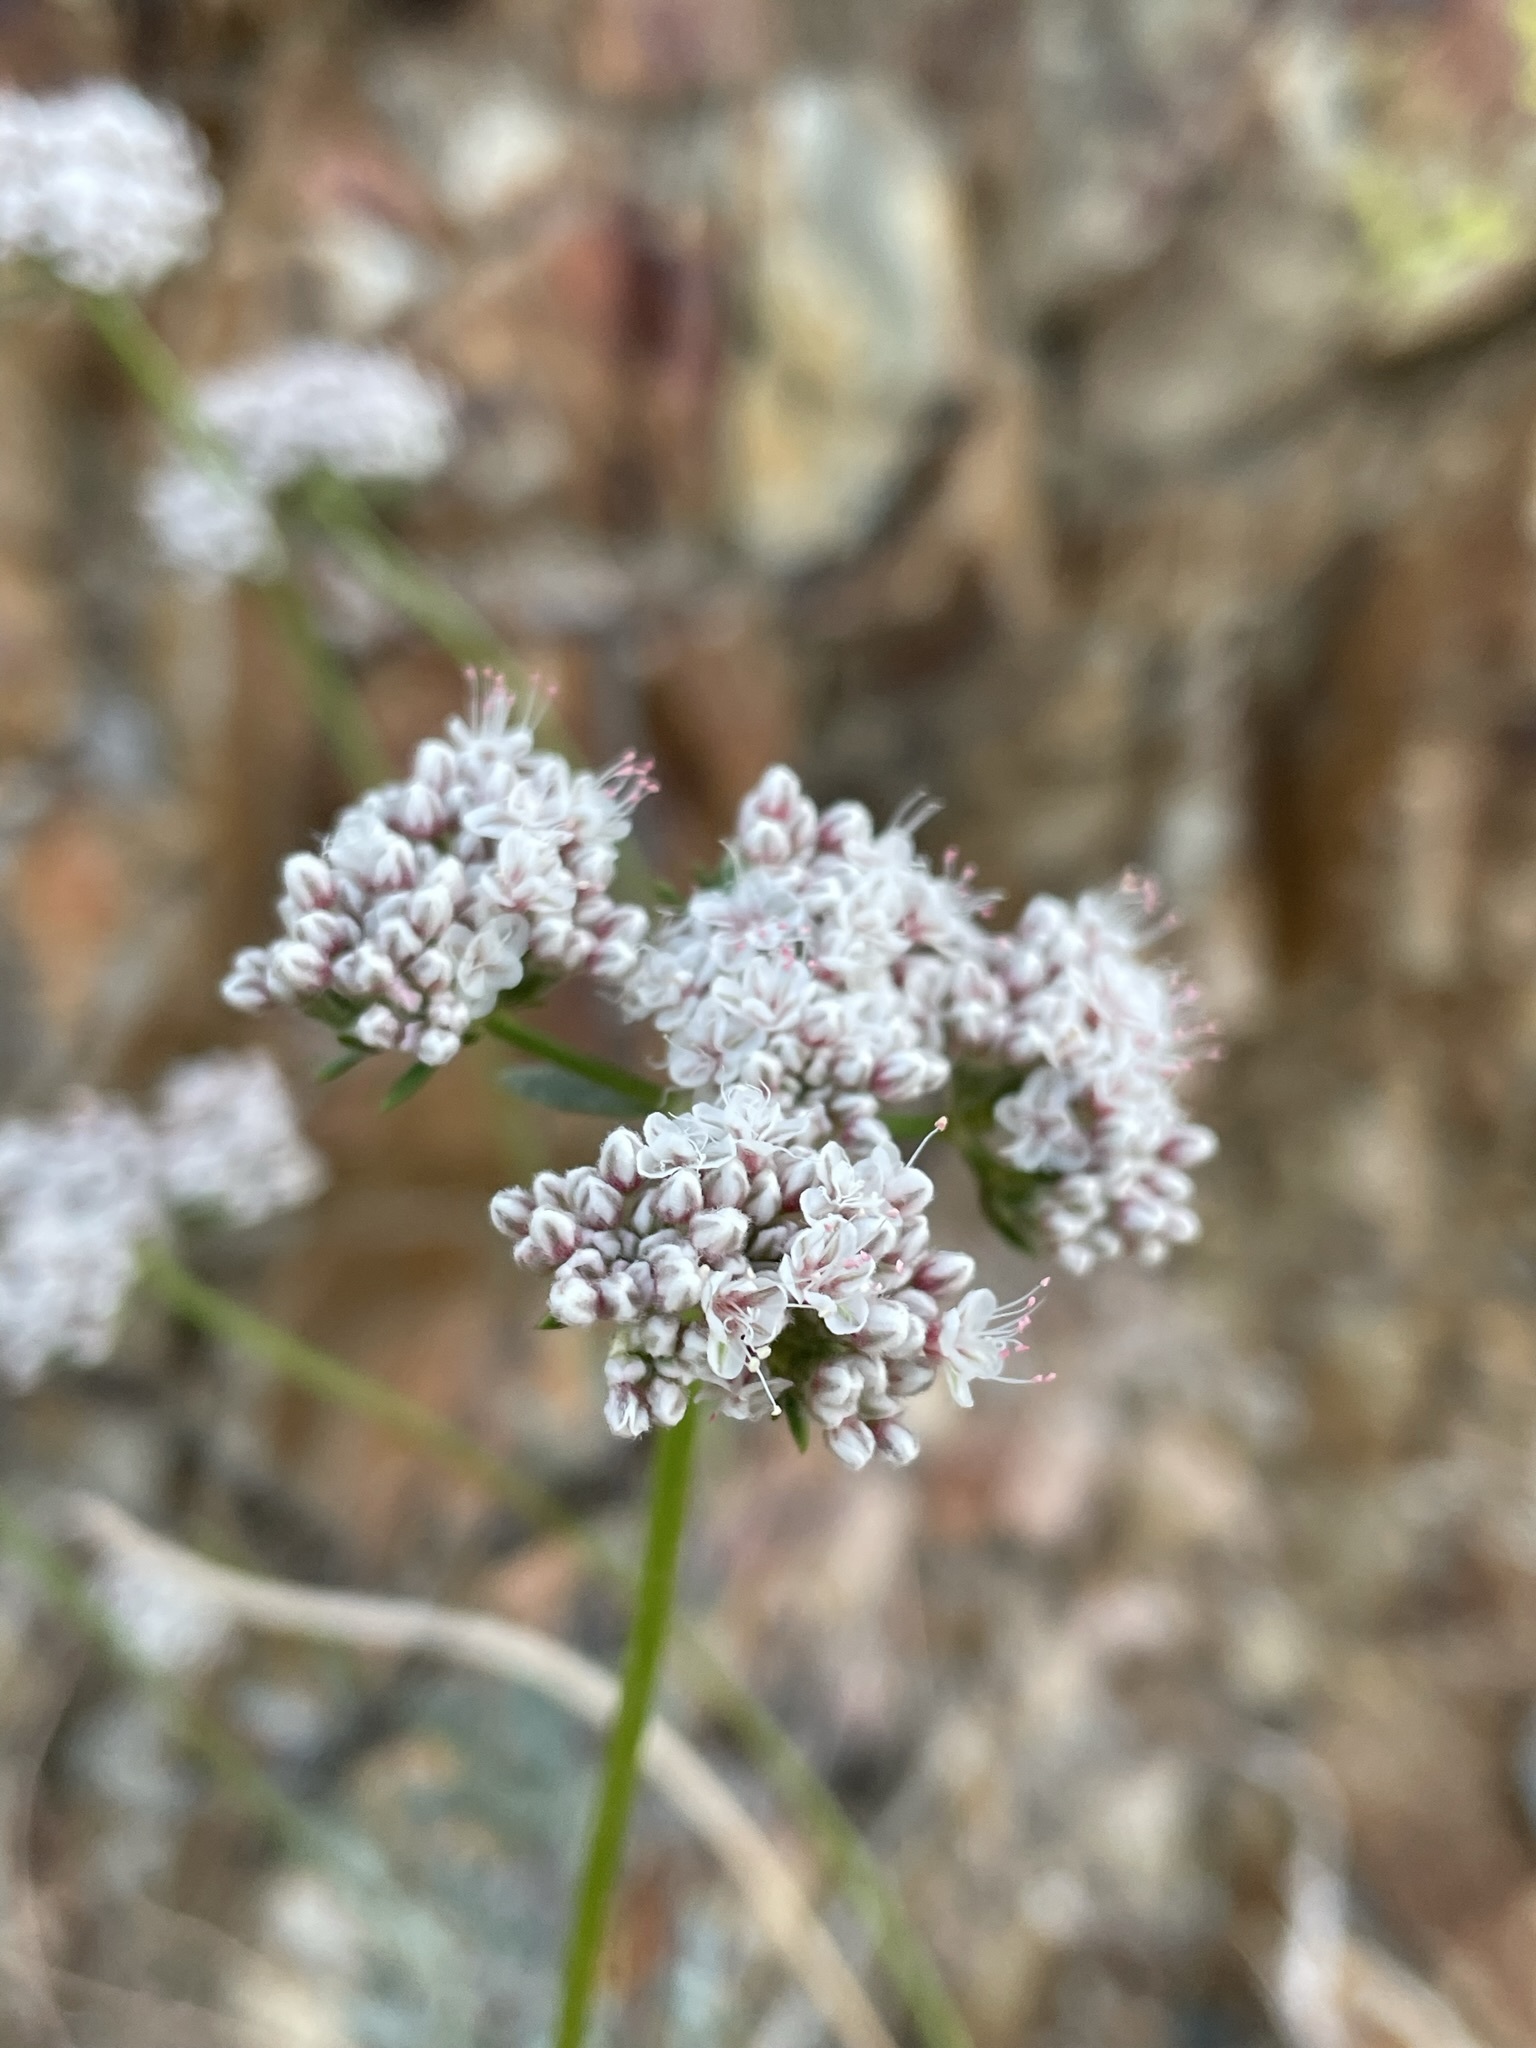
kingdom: Plantae
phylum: Tracheophyta
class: Magnoliopsida
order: Caryophyllales
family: Polygonaceae
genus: Eriogonum
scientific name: Eriogonum fasciculatum
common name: California wild buckwheat
